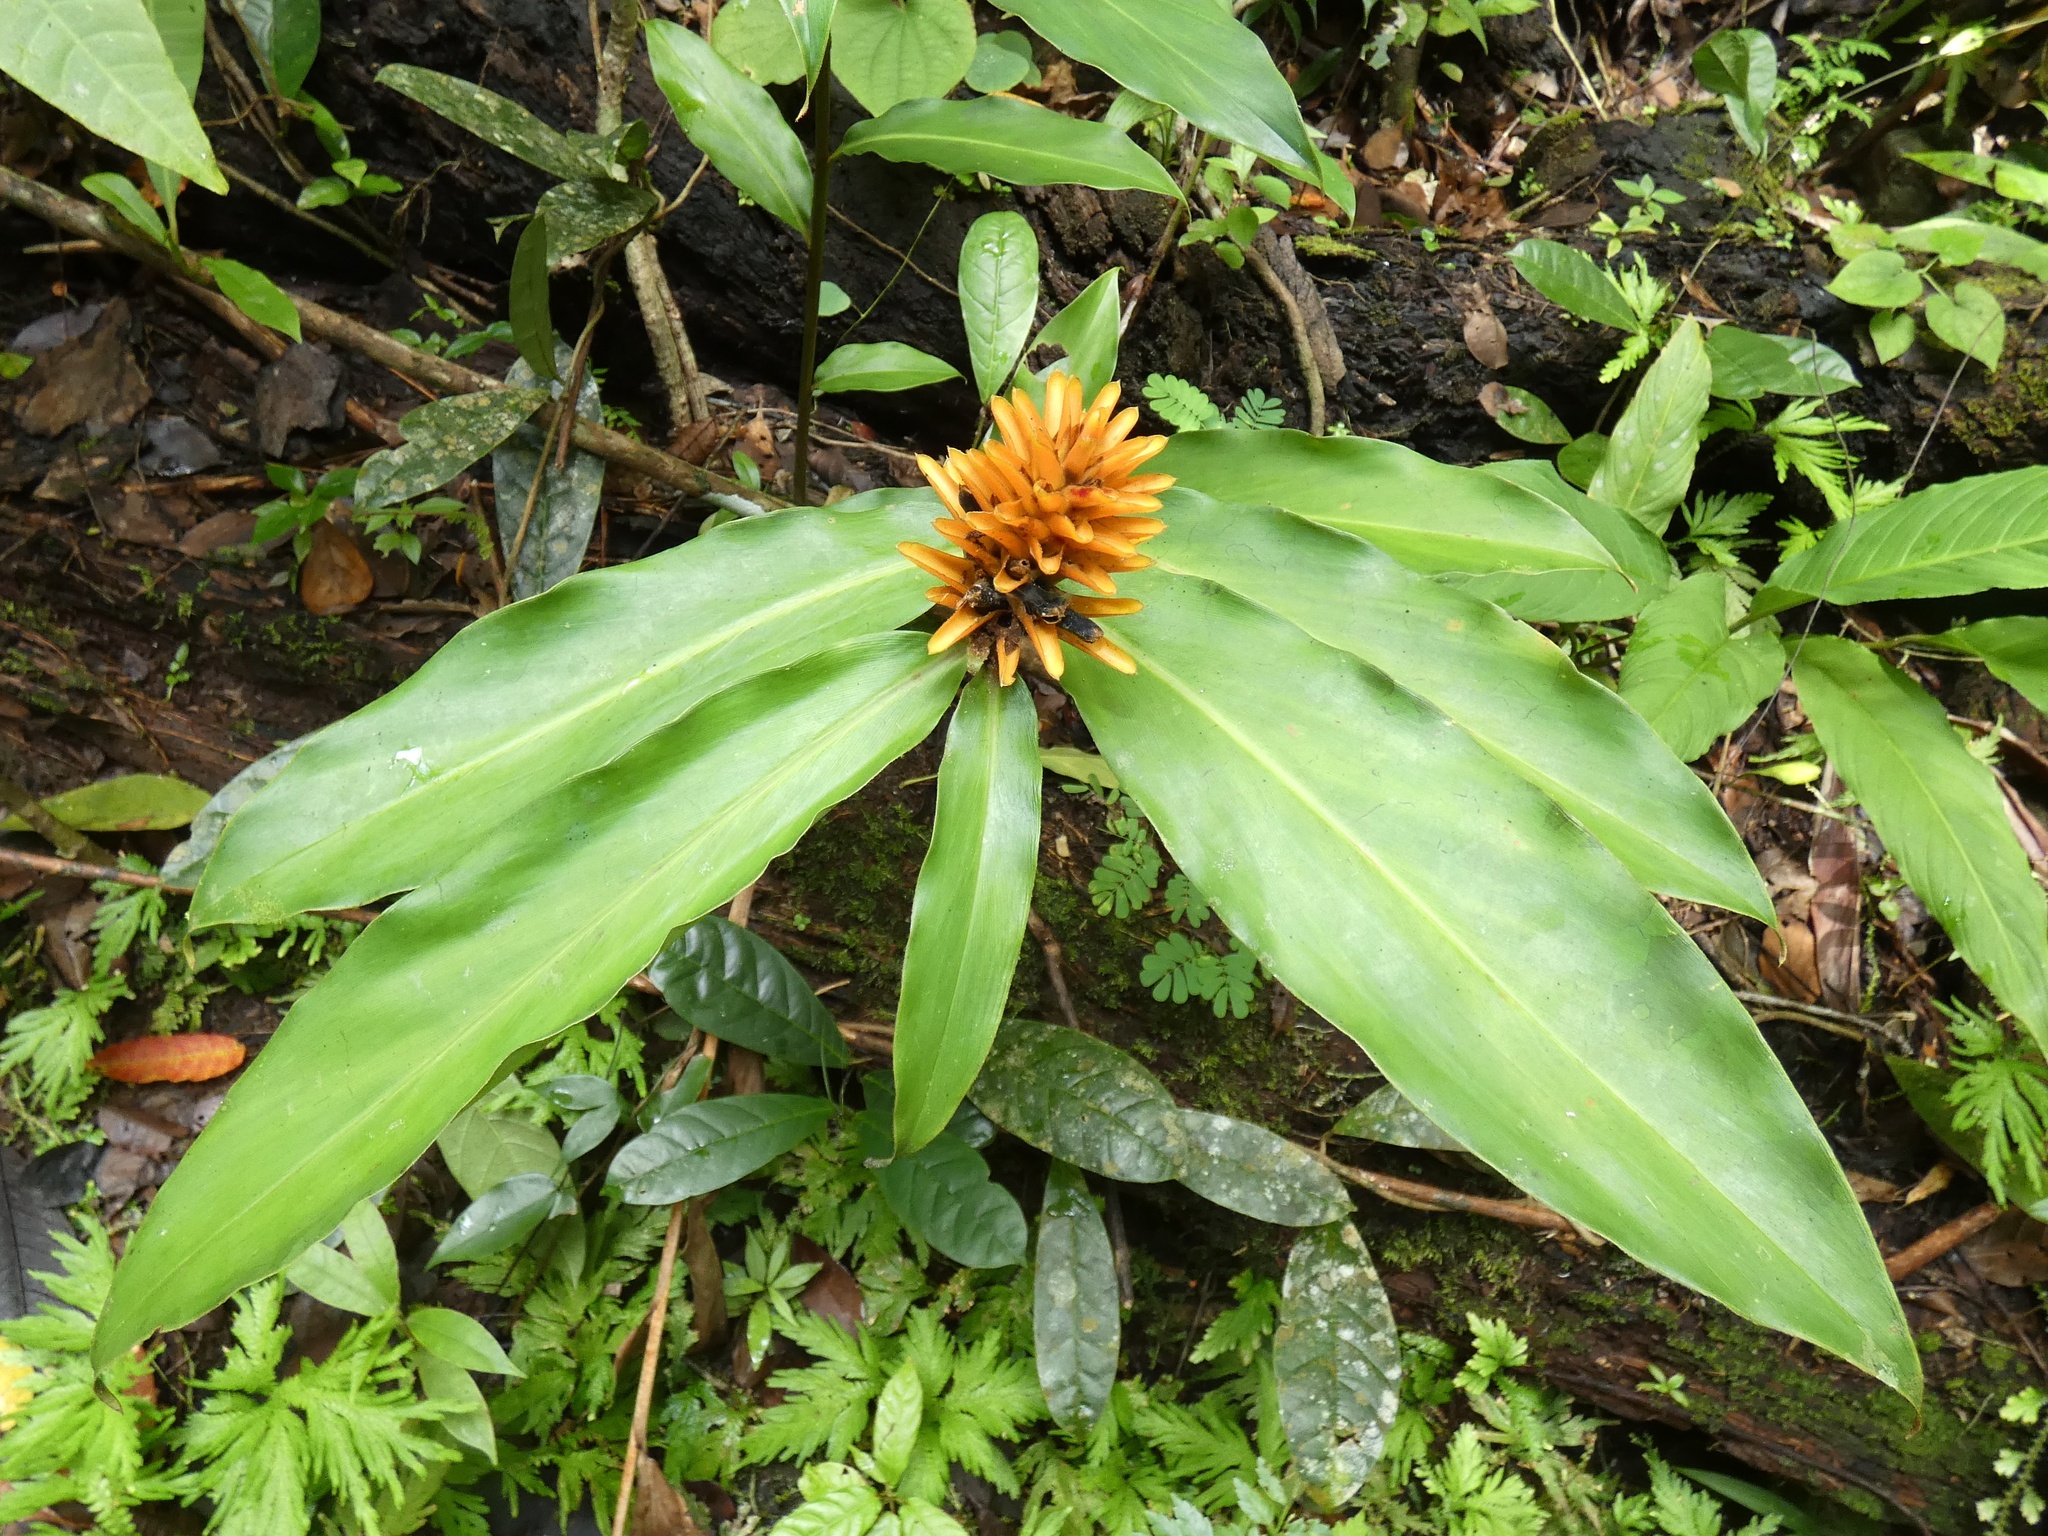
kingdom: Plantae
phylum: Tracheophyta
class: Liliopsida
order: Zingiberales
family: Zingiberaceae
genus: Renealmia
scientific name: Renealmia cernua
